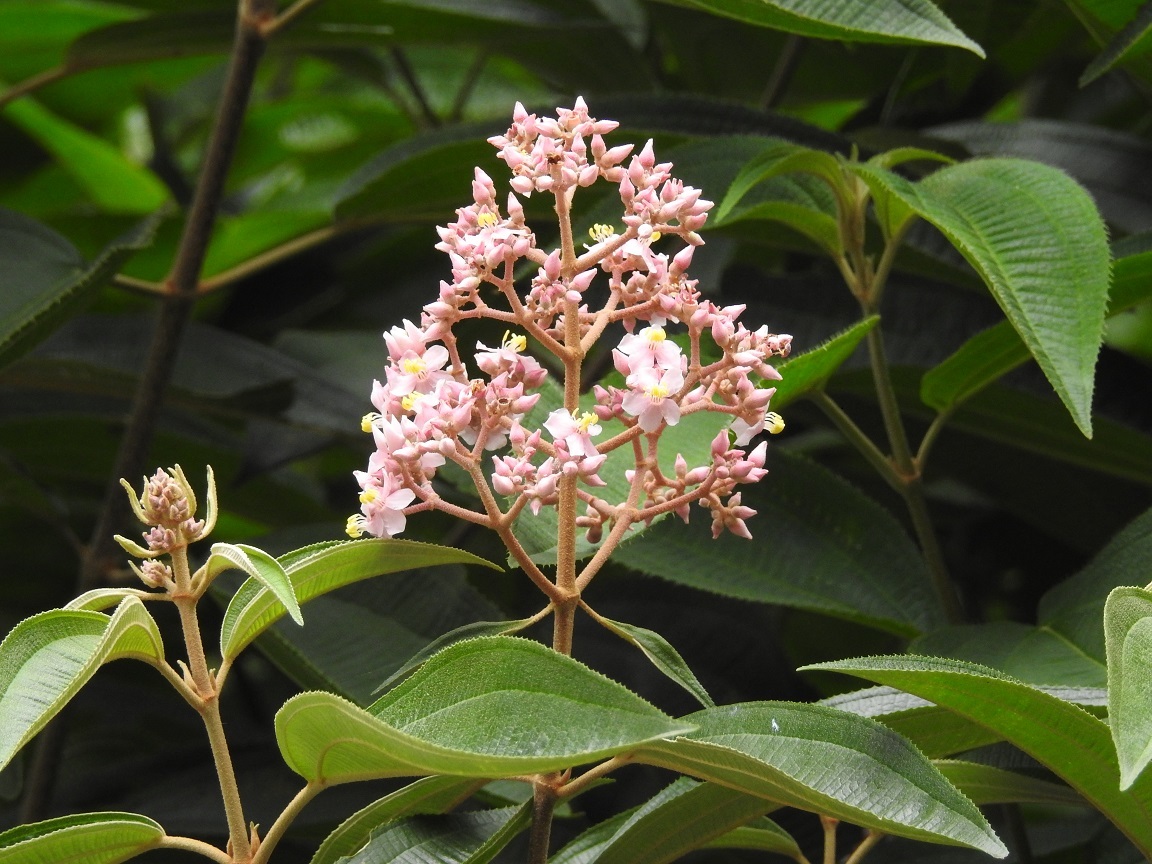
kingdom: Plantae
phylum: Tracheophyta
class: Magnoliopsida
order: Myrtales
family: Melastomataceae
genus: Miconia
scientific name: Miconia xalapensis
